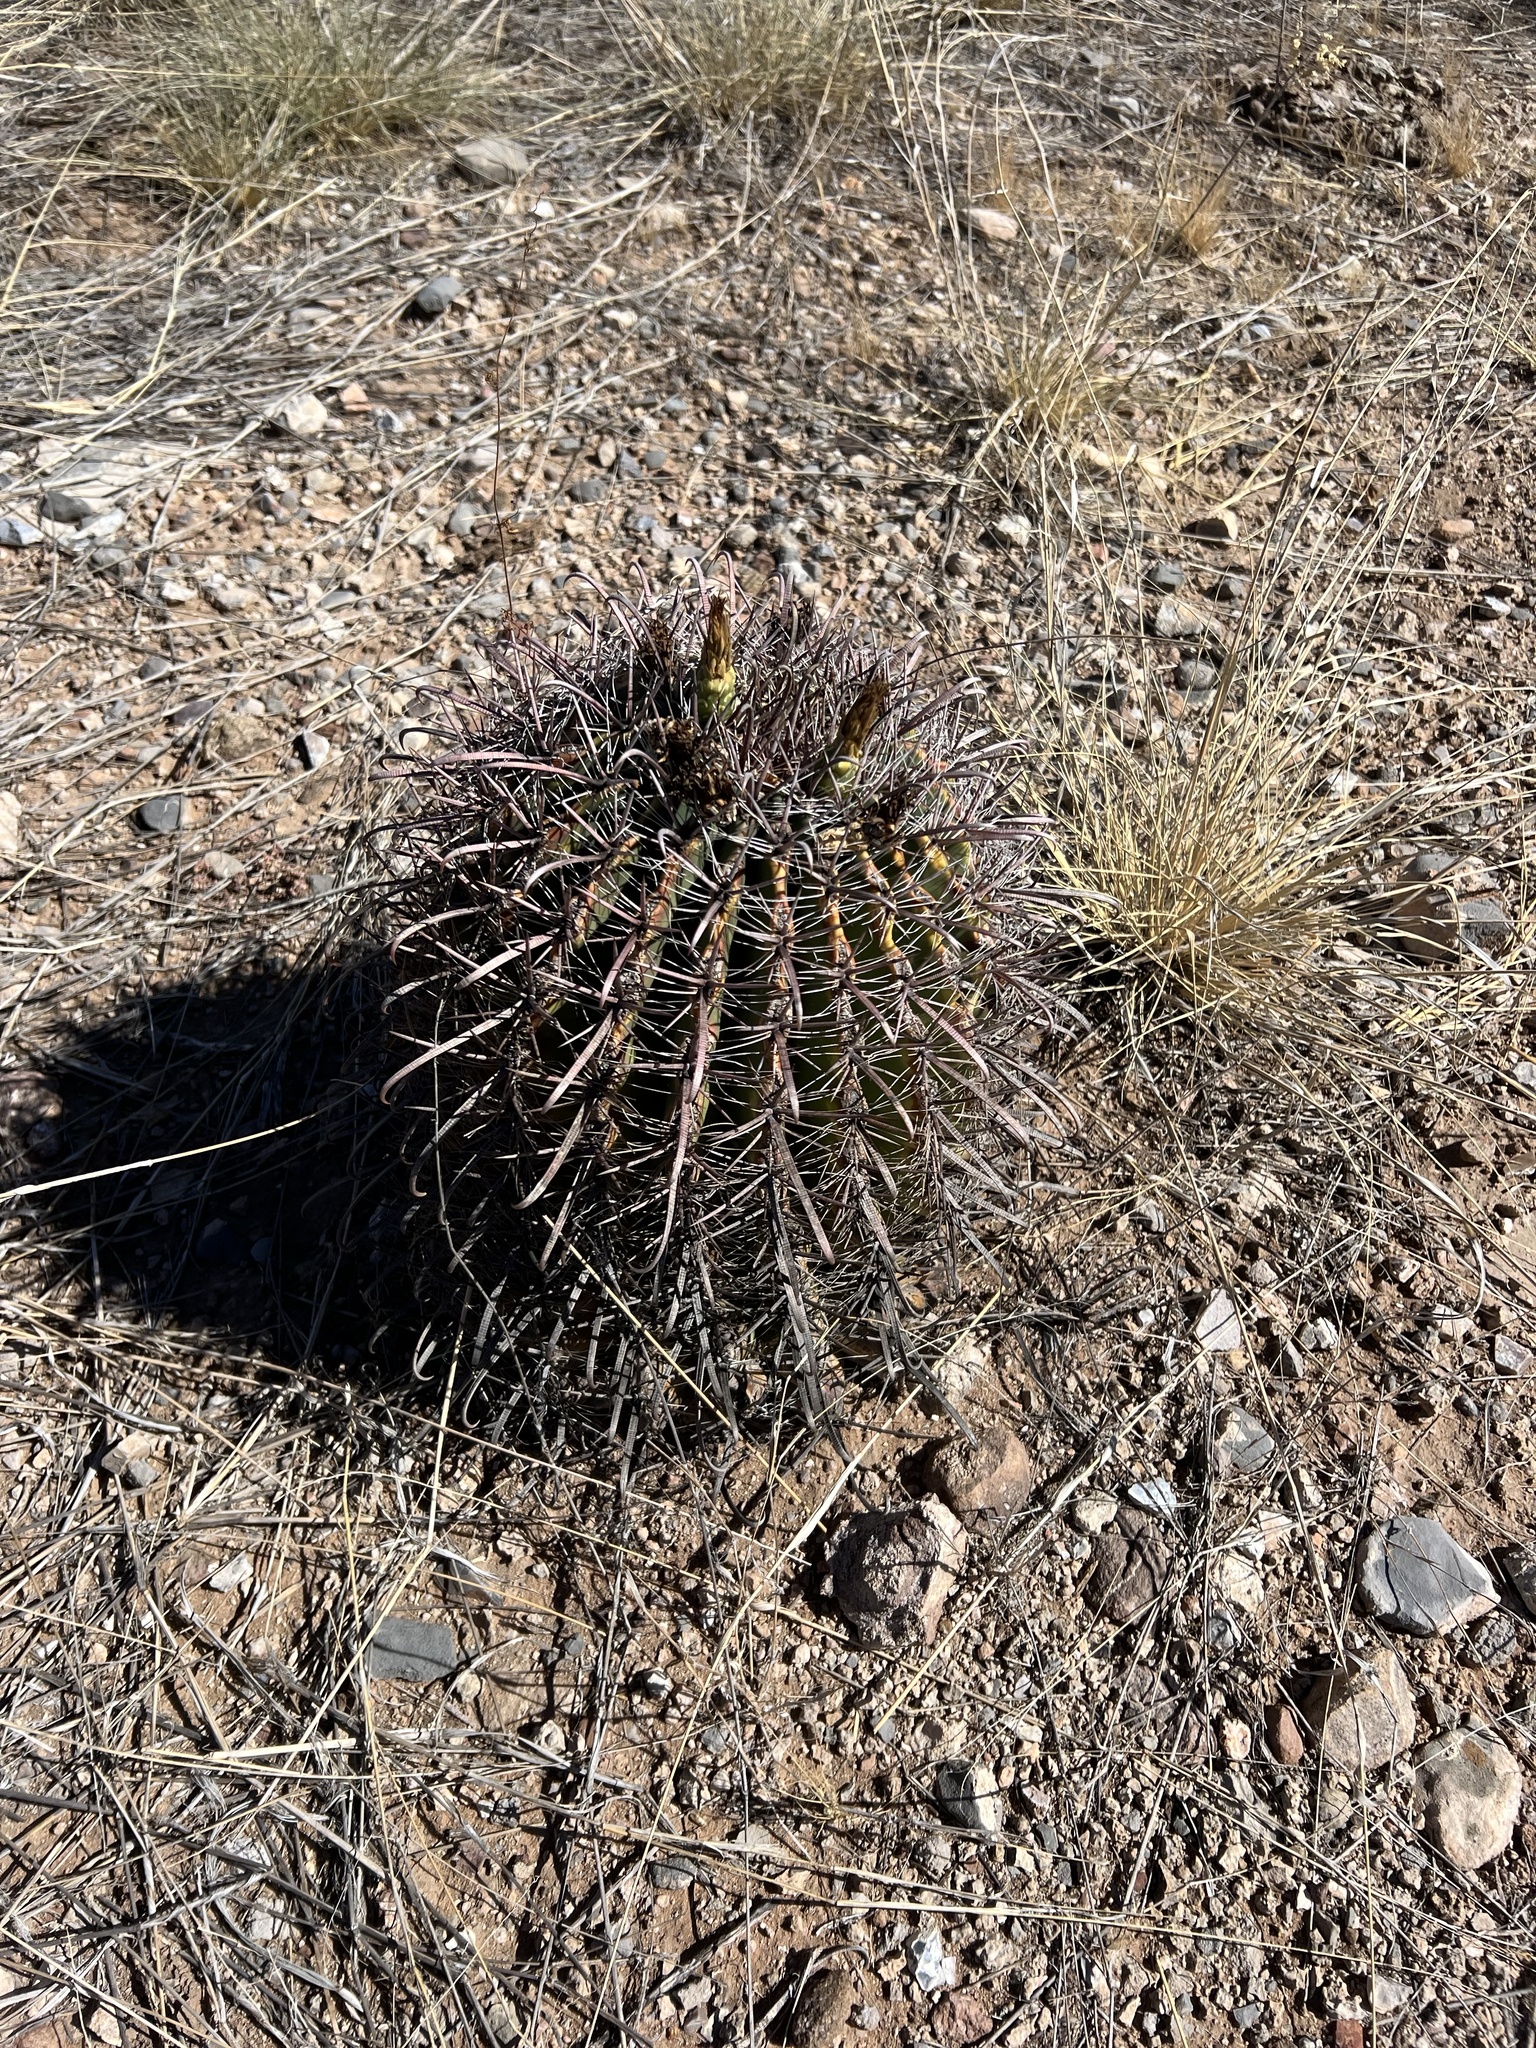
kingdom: Plantae
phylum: Tracheophyta
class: Magnoliopsida
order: Caryophyllales
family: Cactaceae
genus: Ferocactus
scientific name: Ferocactus wislizeni
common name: Candy barrel cactus
